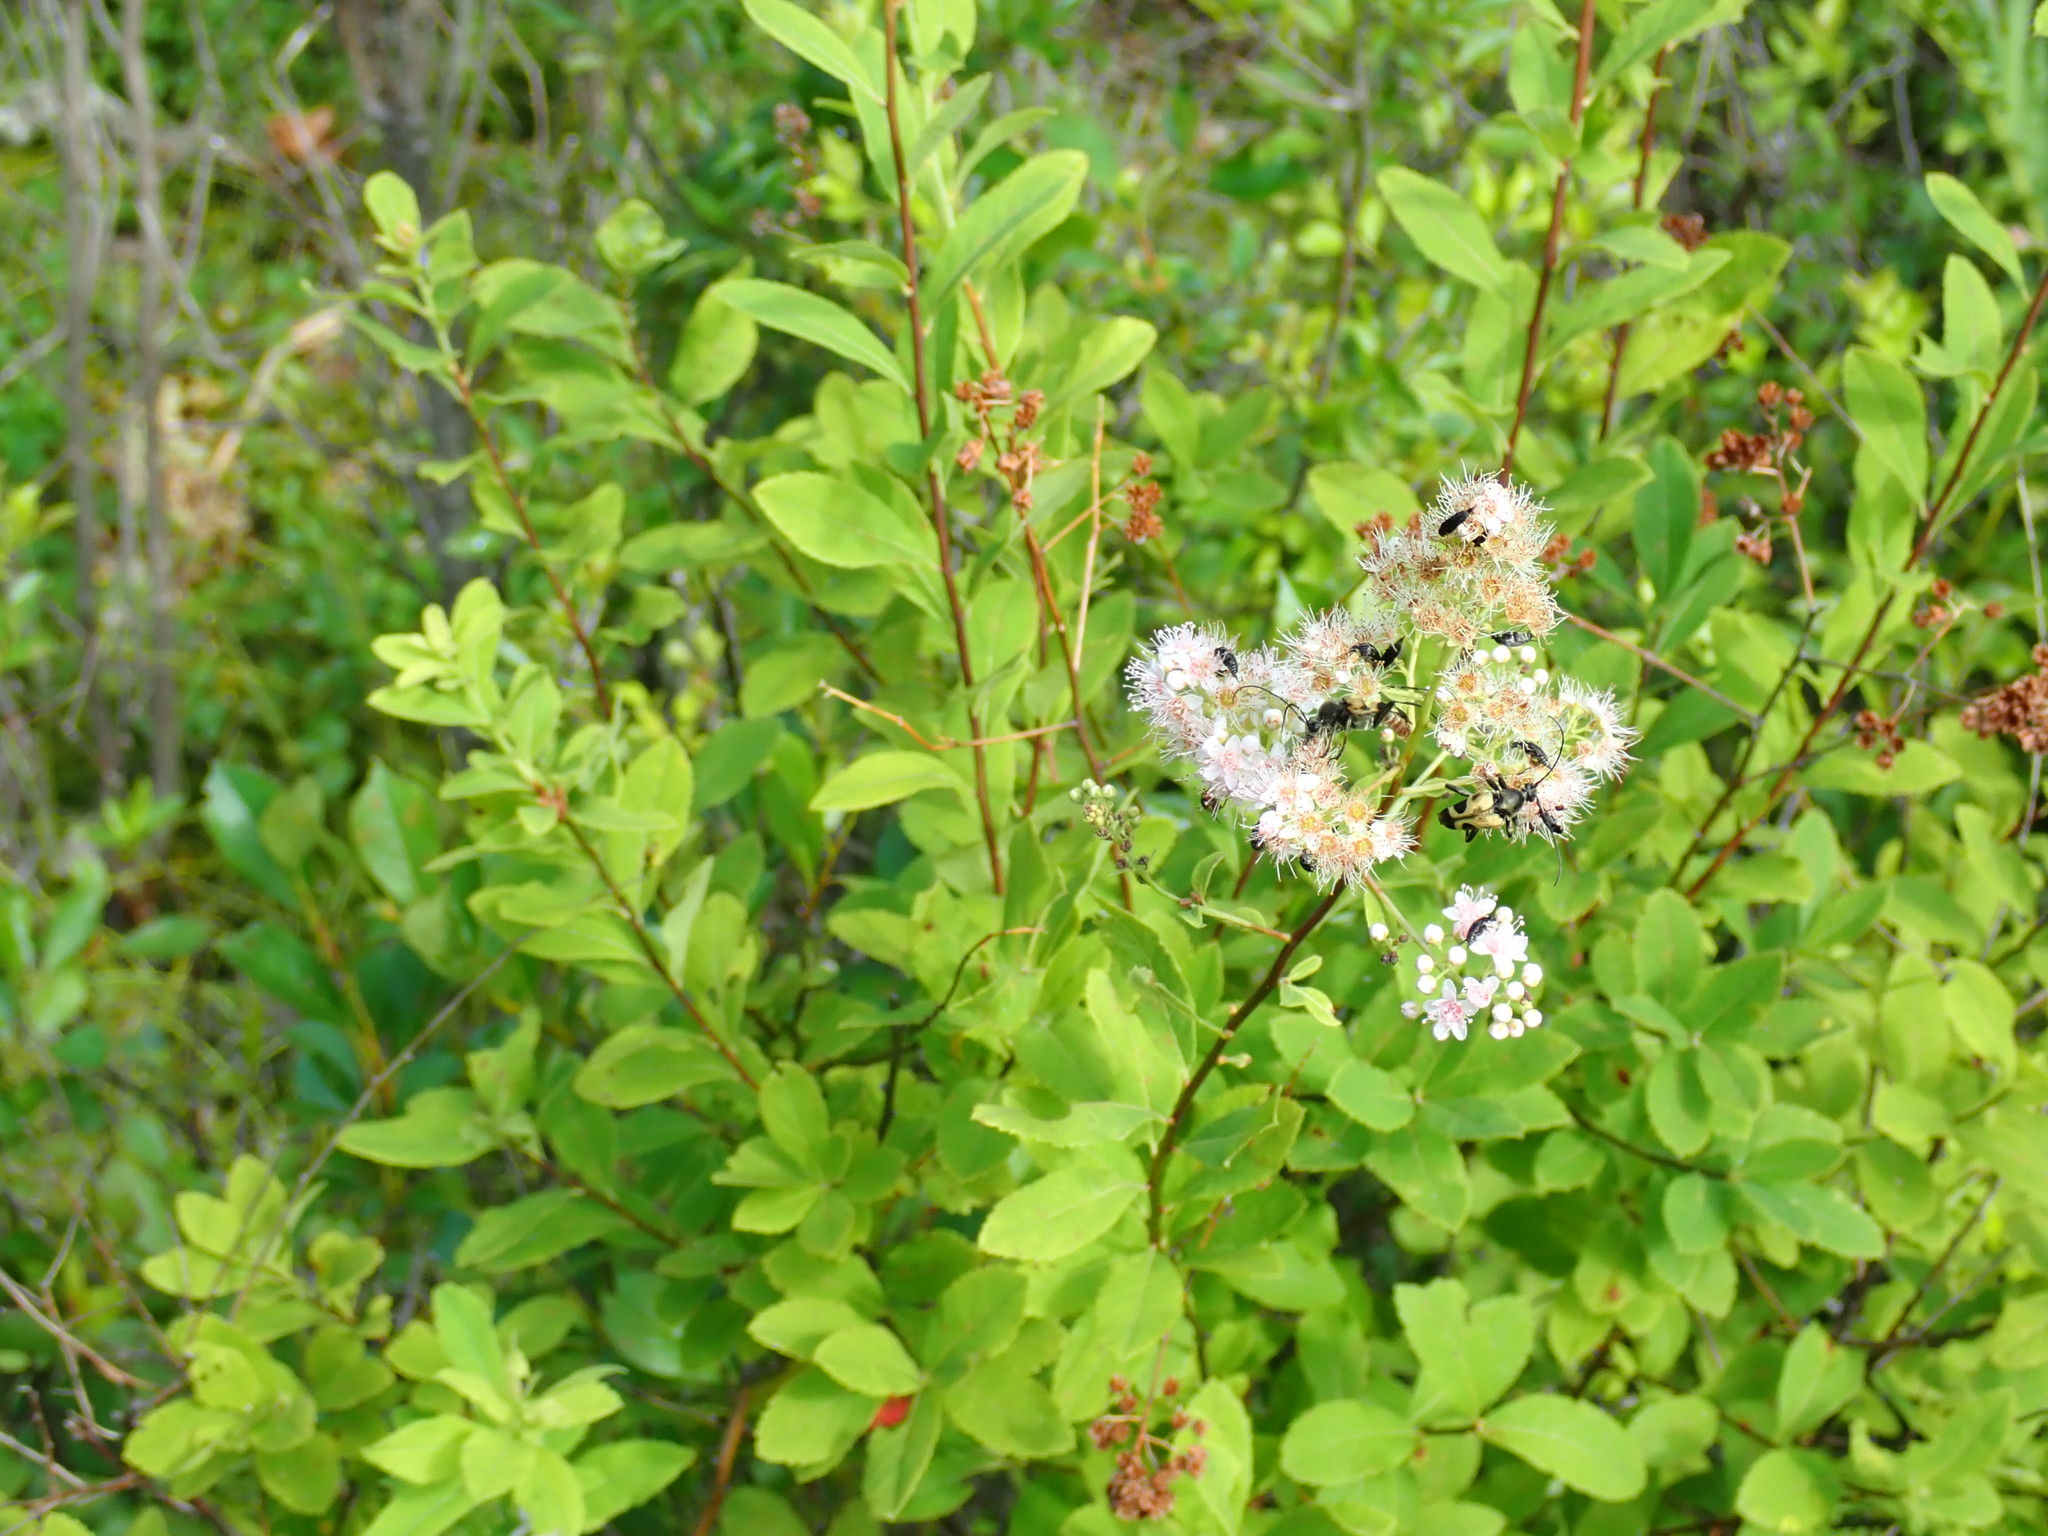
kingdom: Plantae
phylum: Tracheophyta
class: Magnoliopsida
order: Rosales
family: Rosaceae
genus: Spiraea
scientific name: Spiraea alba
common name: Pale bridewort
